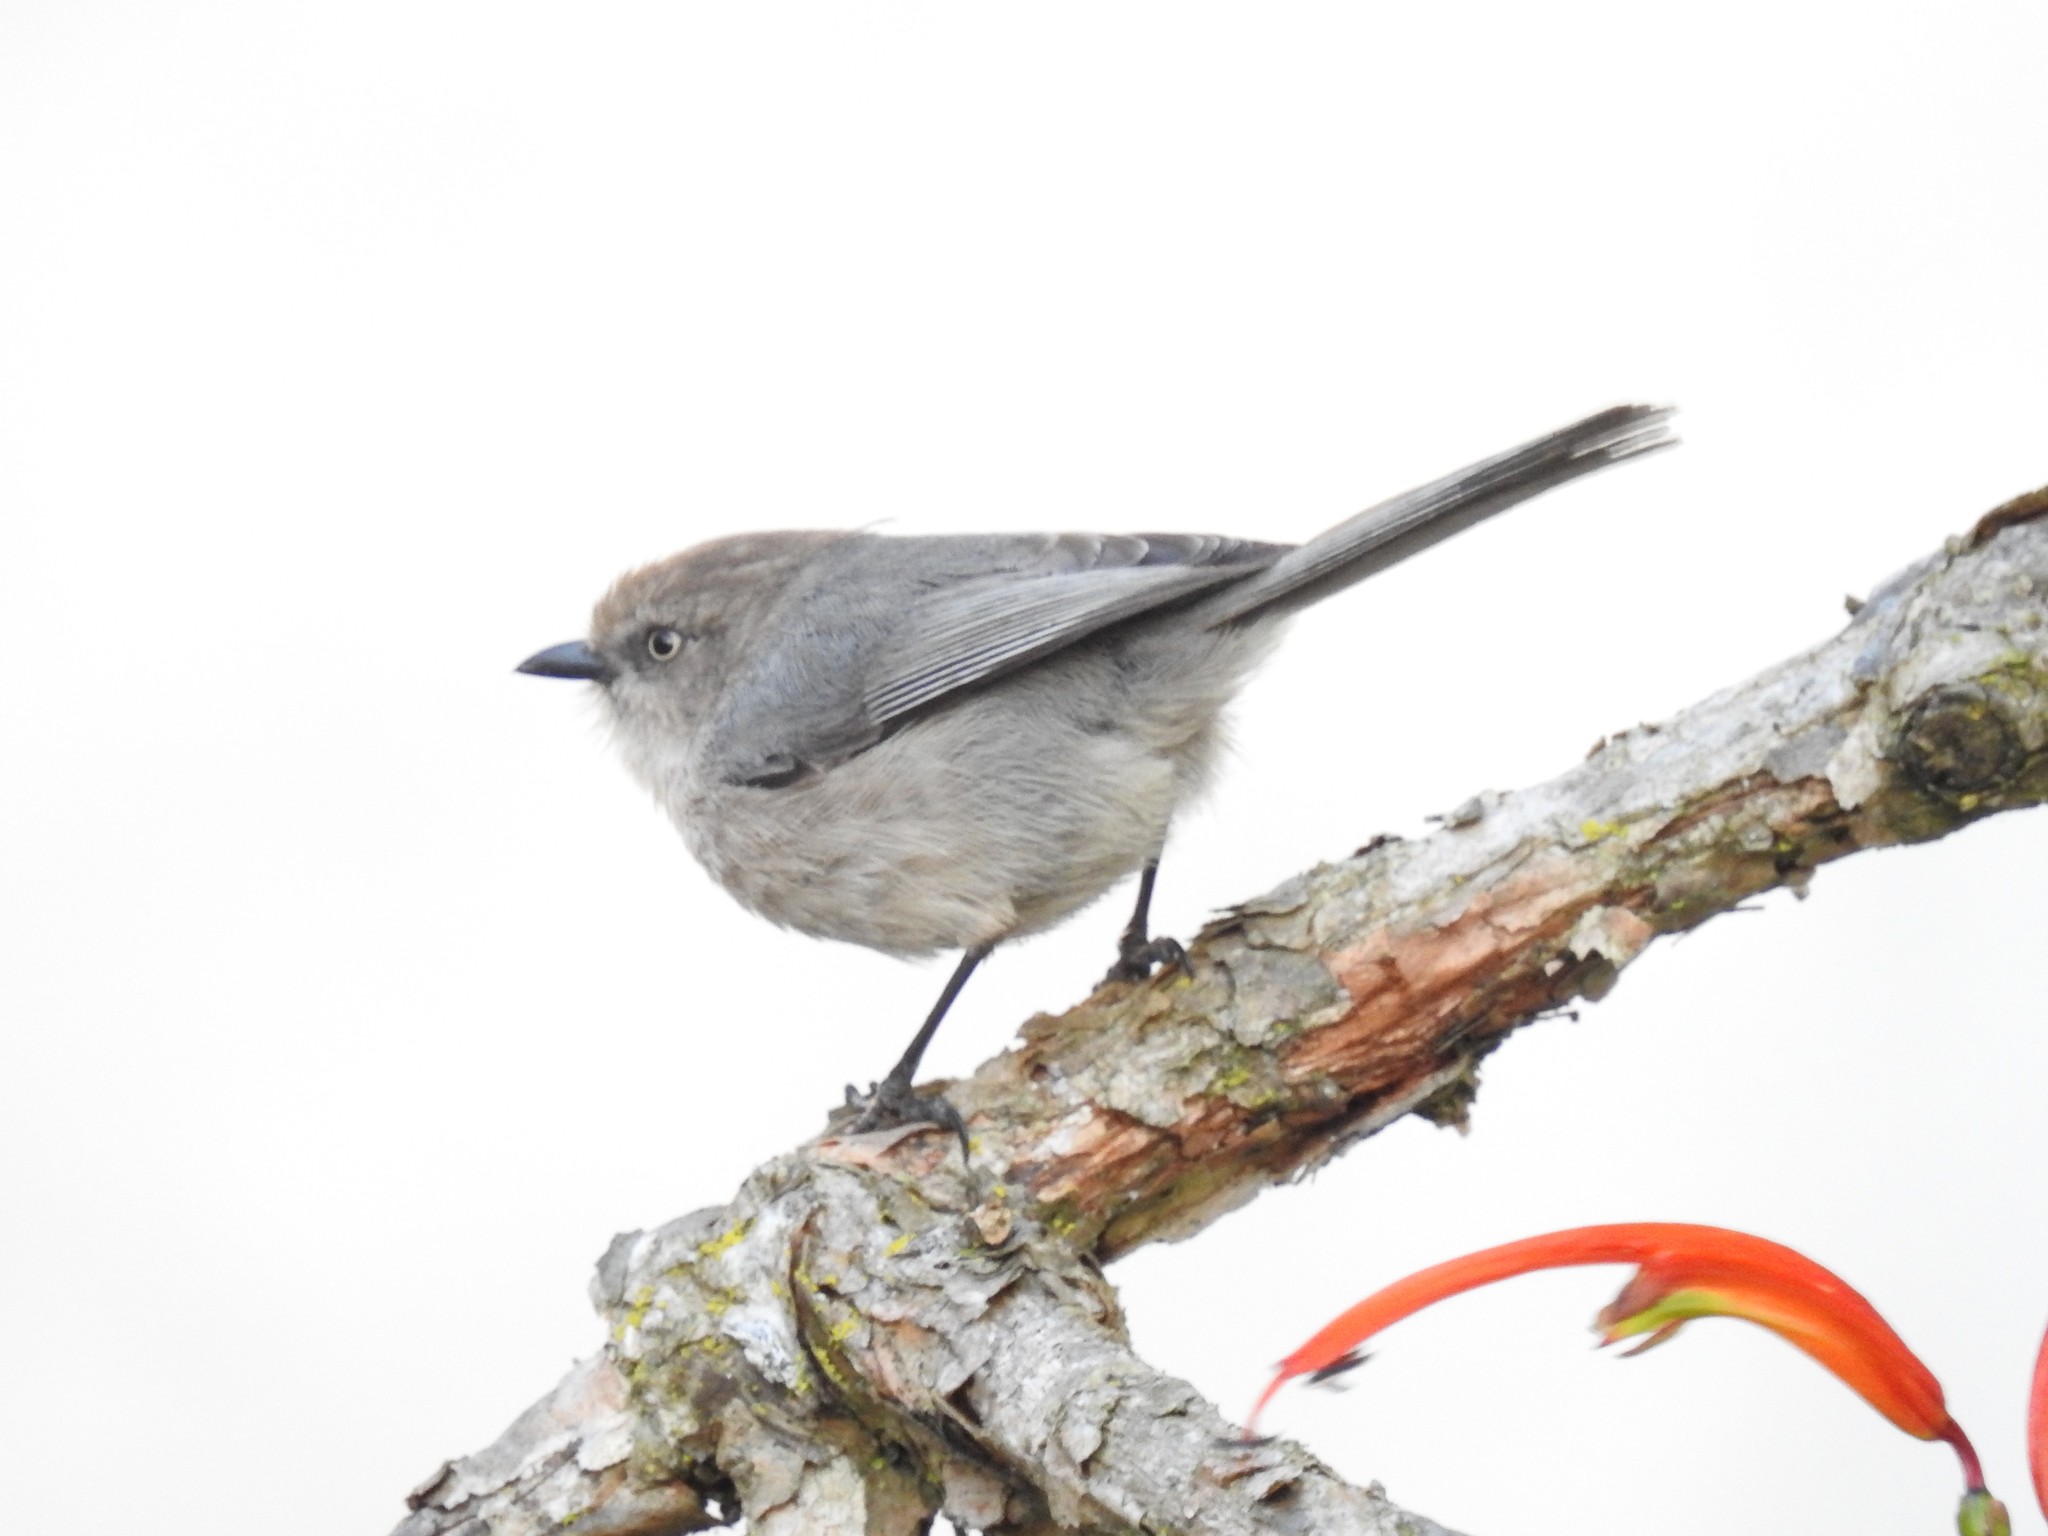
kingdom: Animalia
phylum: Chordata
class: Aves
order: Passeriformes
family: Aegithalidae
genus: Psaltriparus
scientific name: Psaltriparus minimus
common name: American bushtit
